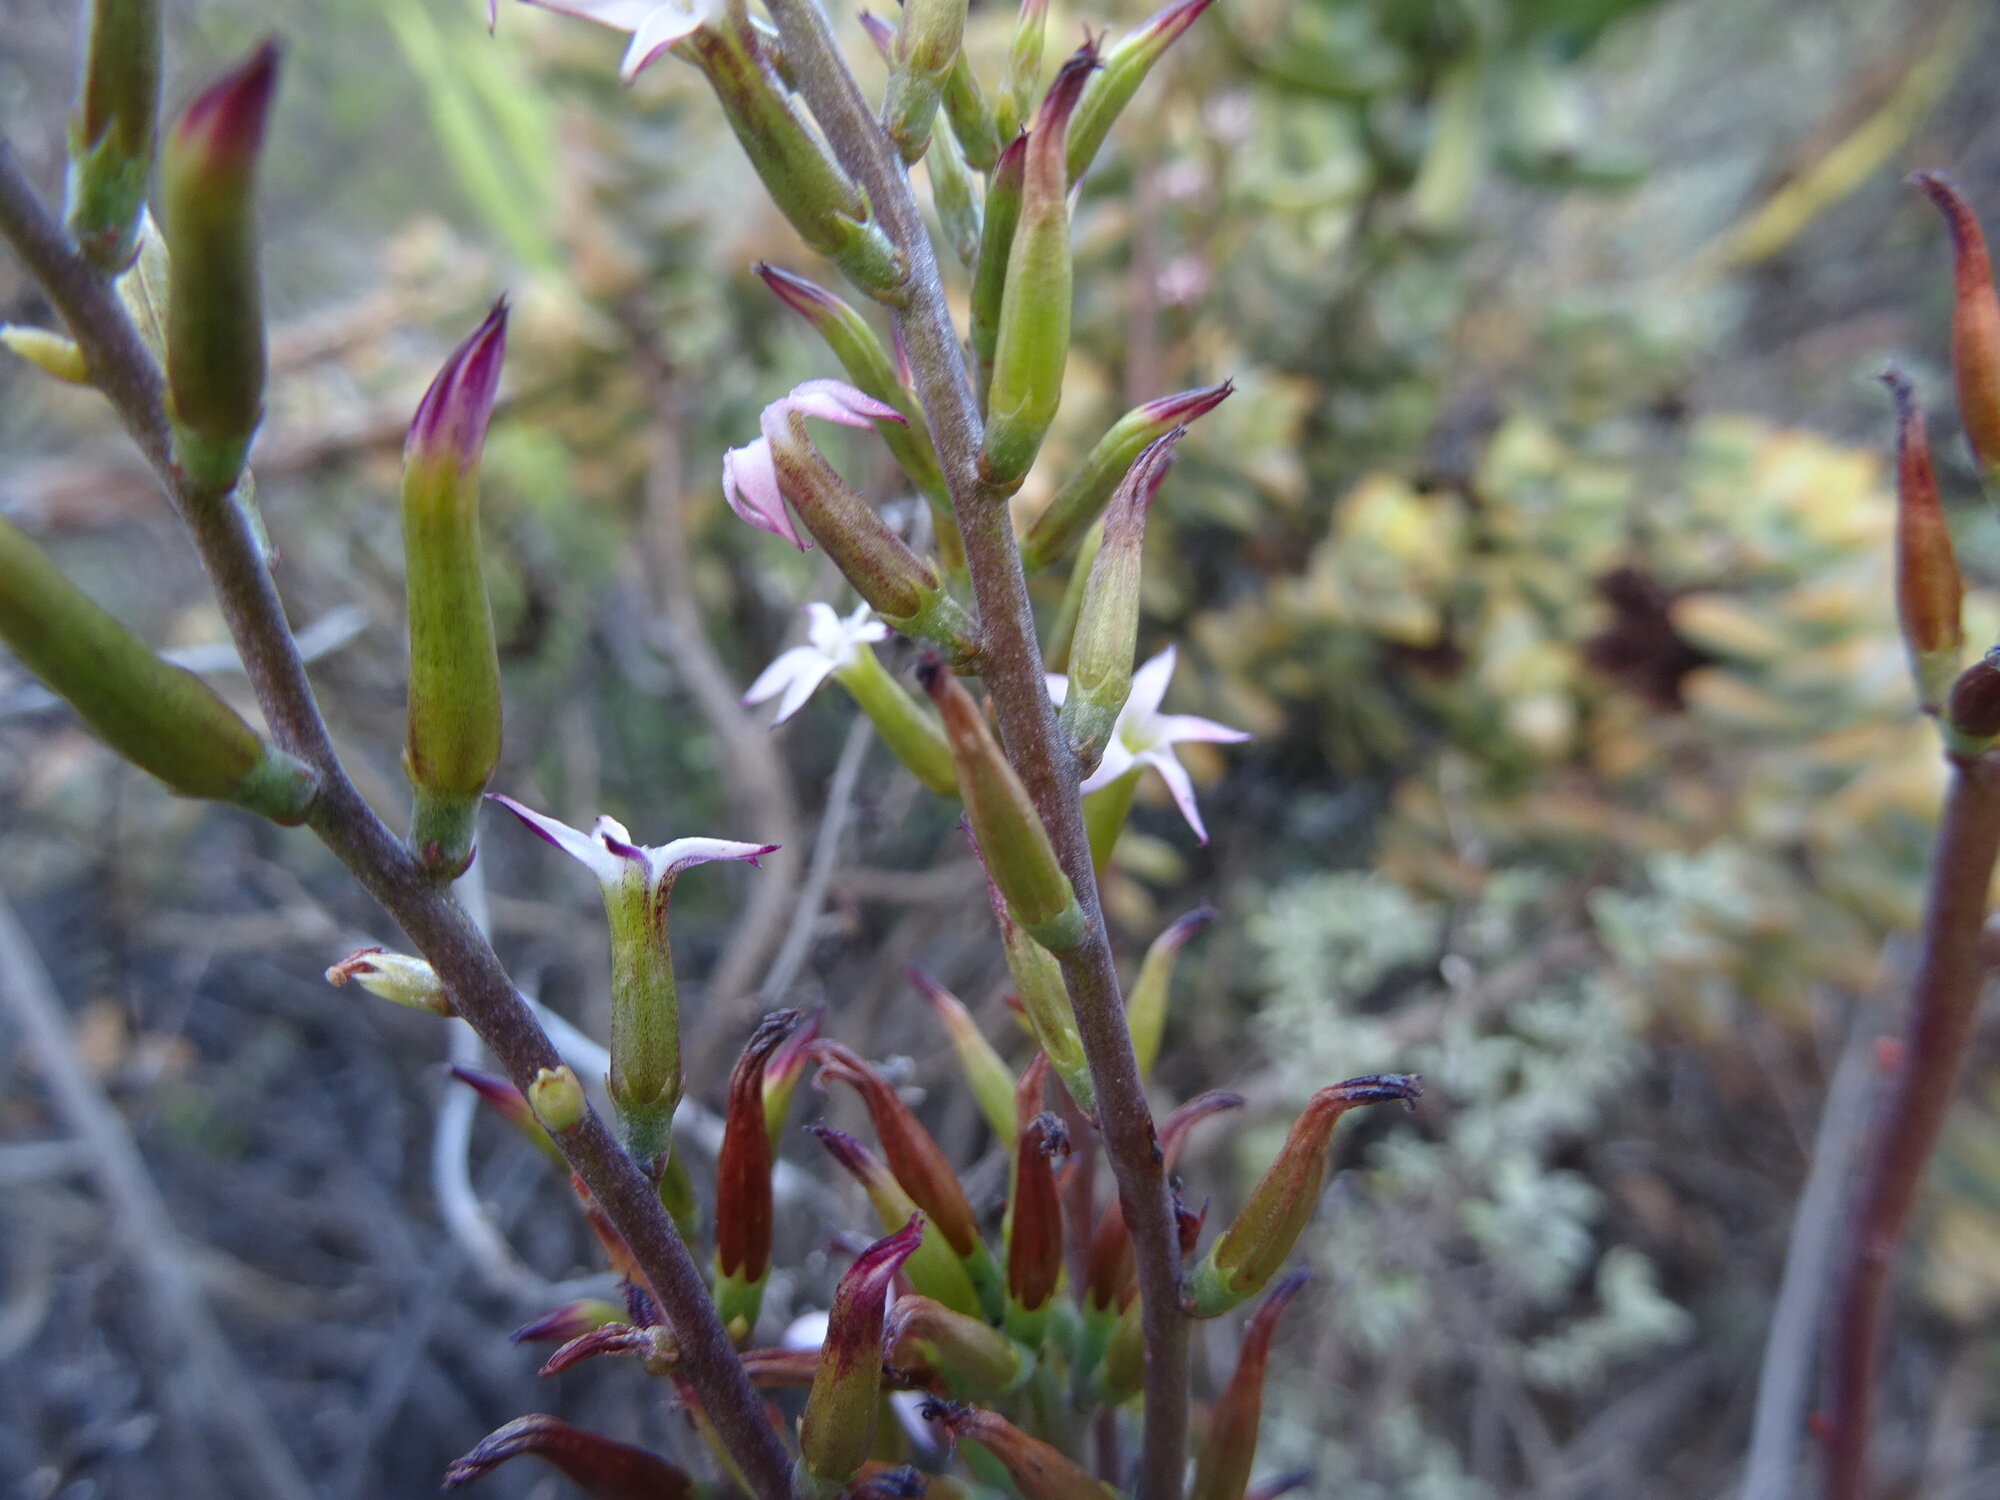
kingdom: Plantae
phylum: Tracheophyta
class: Magnoliopsida
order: Saxifragales
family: Crassulaceae
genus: Adromischus
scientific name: Adromischus triflorus
